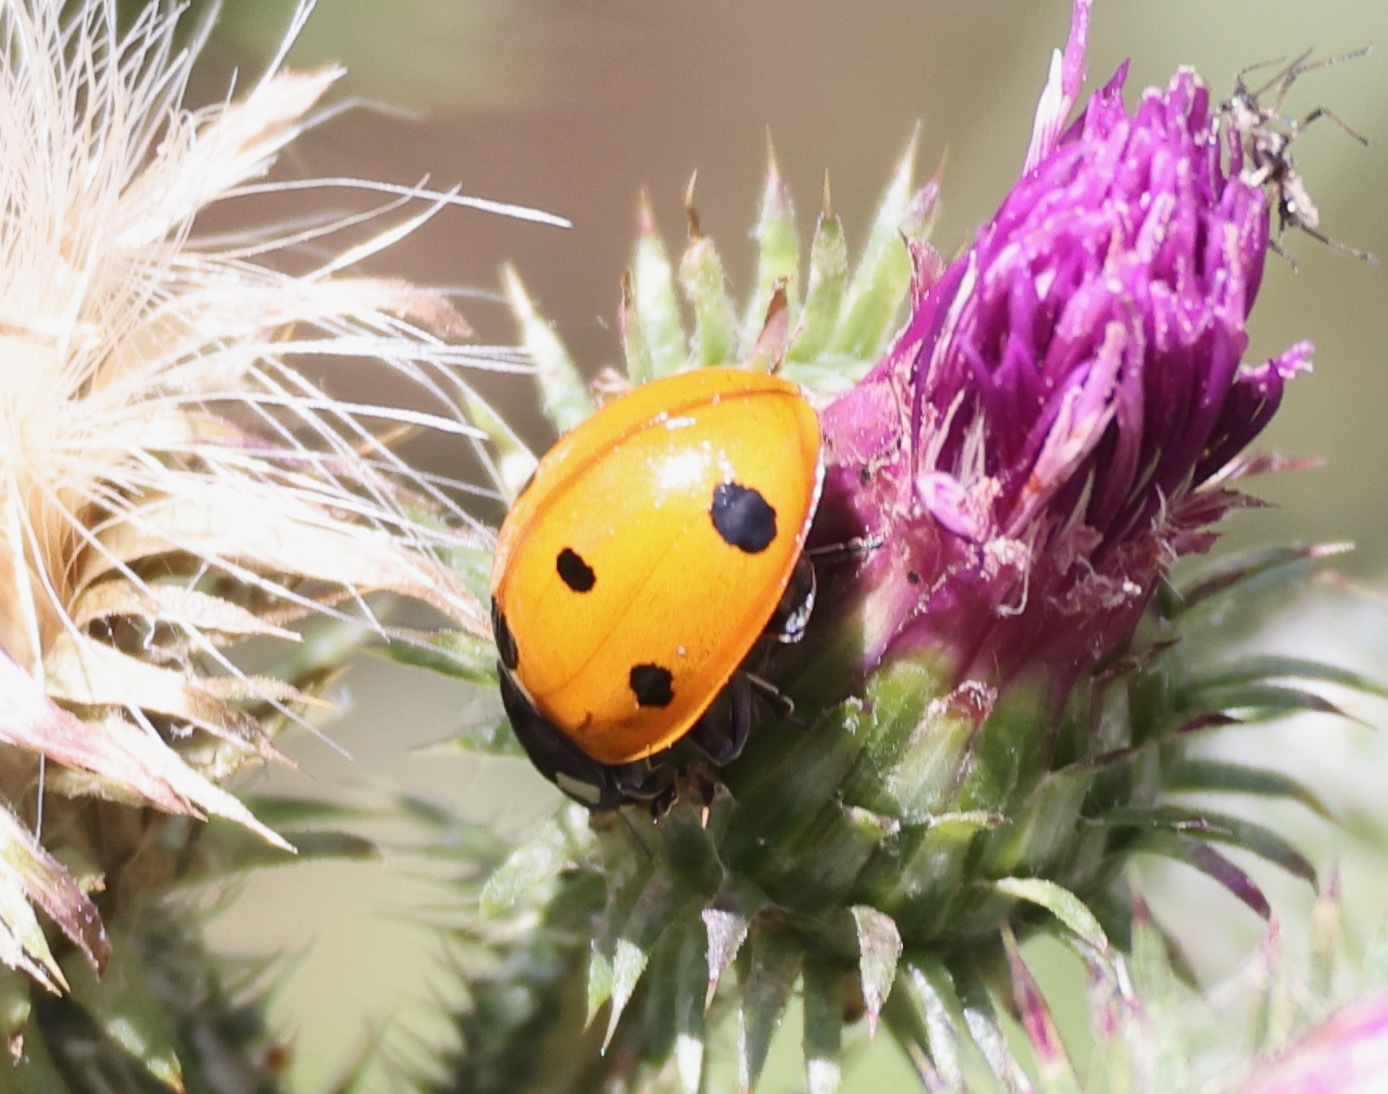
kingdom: Animalia
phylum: Arthropoda
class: Insecta
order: Coleoptera
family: Coccinellidae
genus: Coccinella
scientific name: Coccinella septempunctata
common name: Sevenspotted lady beetle
